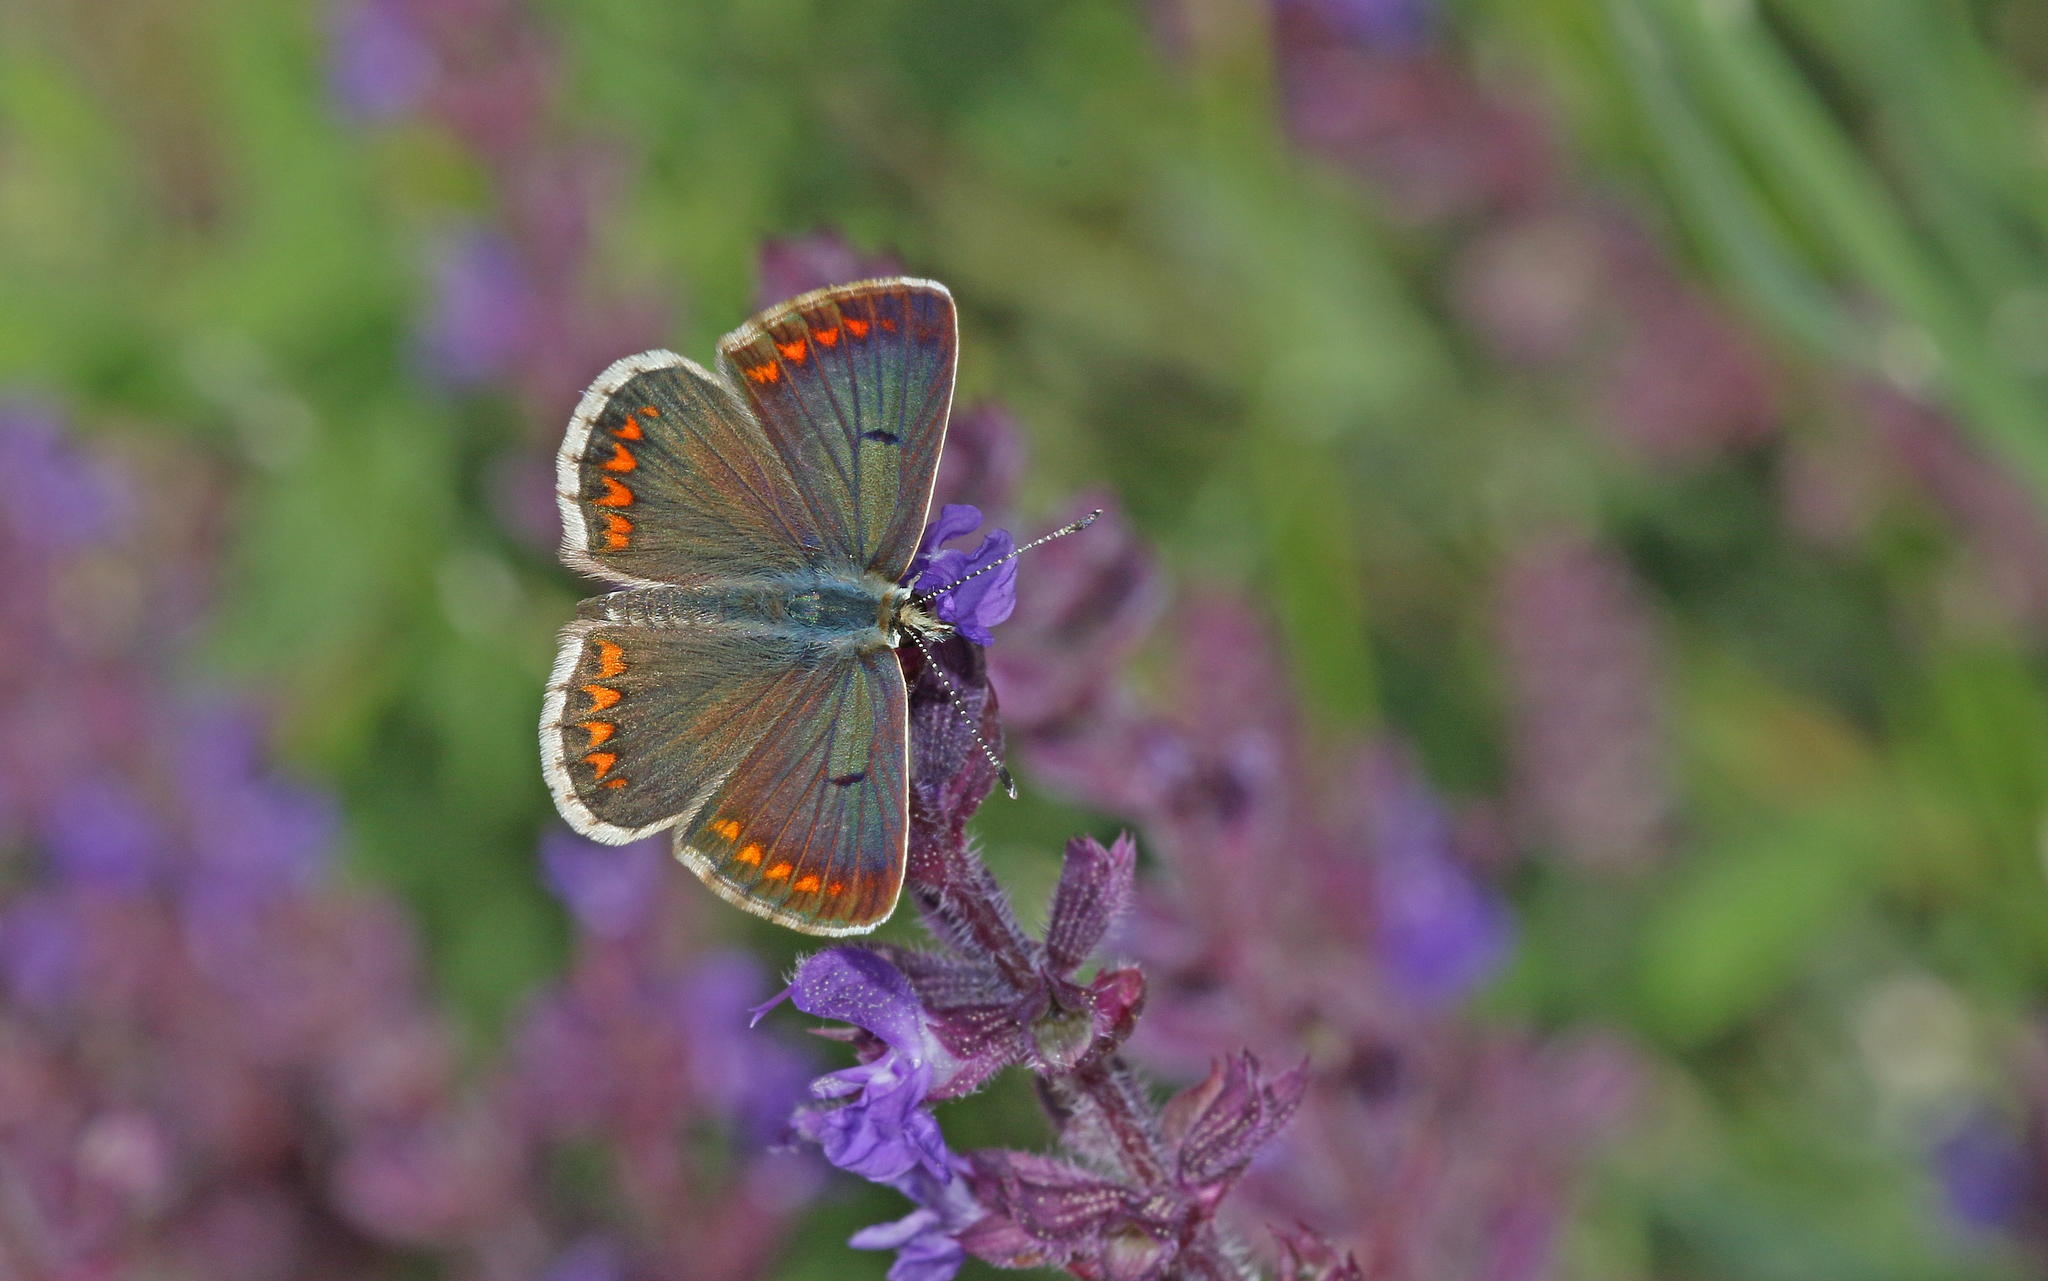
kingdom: Animalia
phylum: Arthropoda
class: Insecta
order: Lepidoptera
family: Lycaenidae
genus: Aricia
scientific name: Aricia agestis
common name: Brown argus
